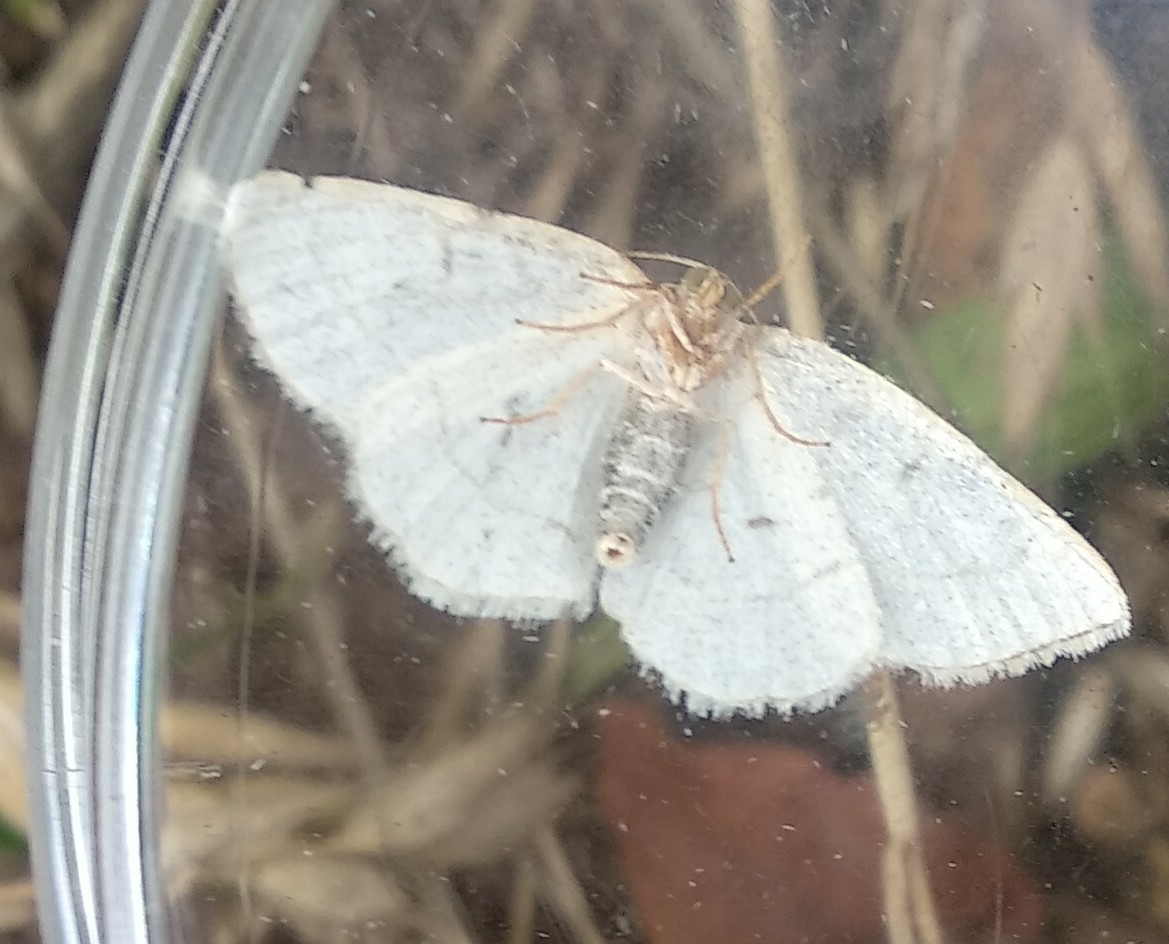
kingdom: Animalia
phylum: Arthropoda
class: Insecta
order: Lepidoptera
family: Geometridae
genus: Stegania
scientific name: Stegania trimaculata
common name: Dorset cream wave
